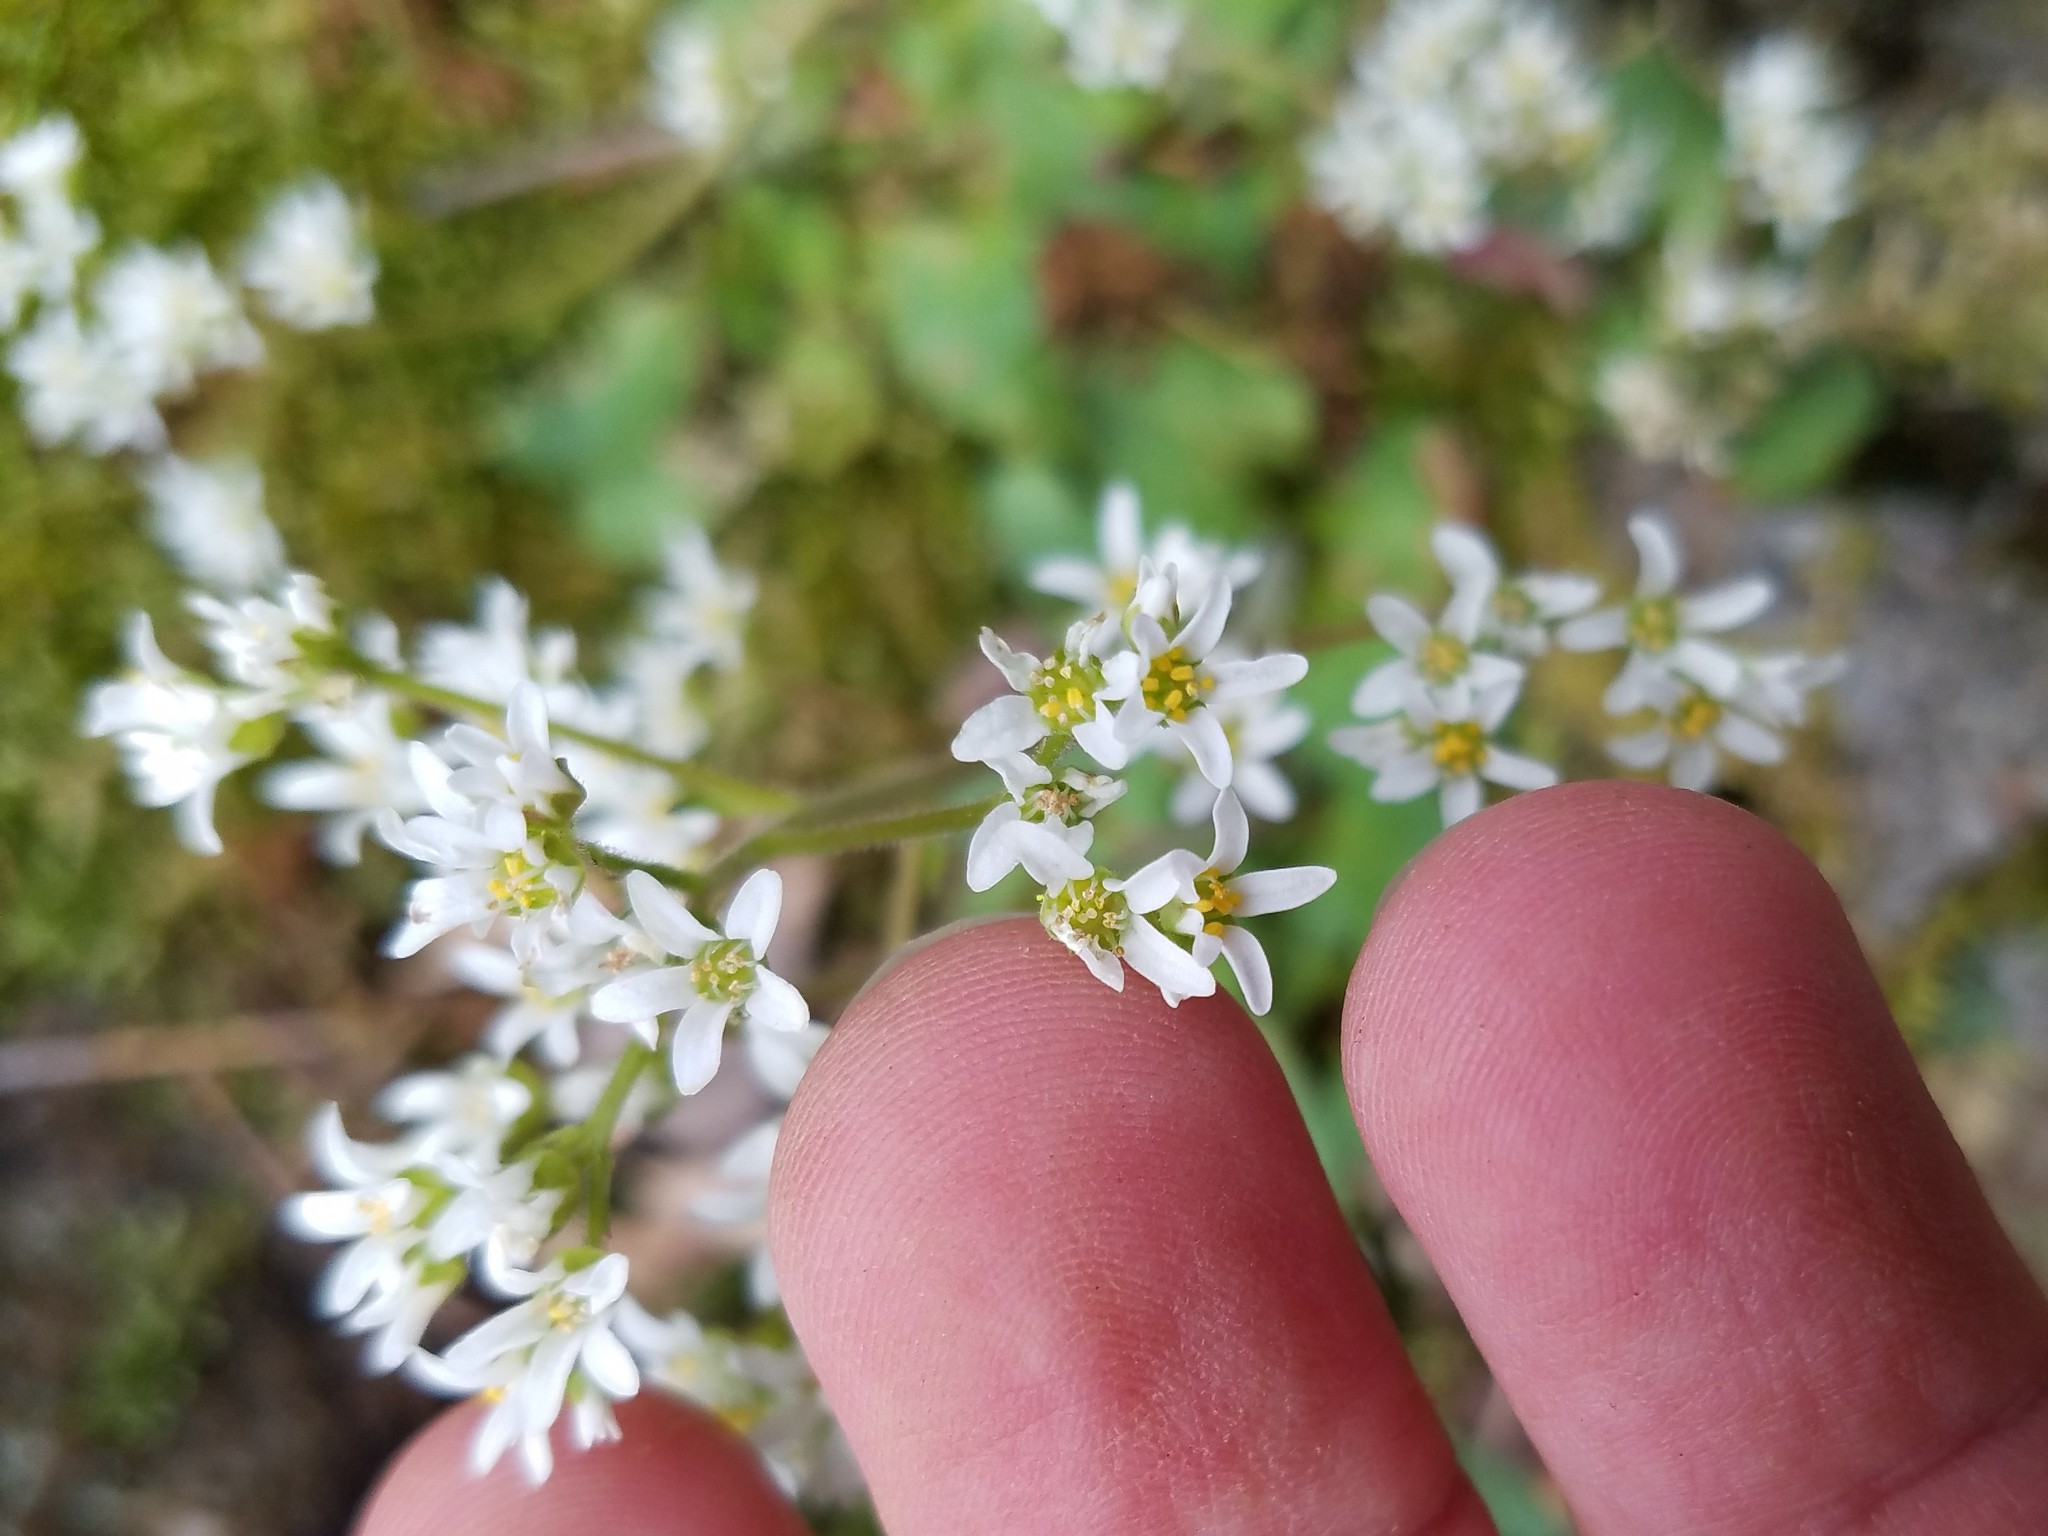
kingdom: Plantae
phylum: Tracheophyta
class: Magnoliopsida
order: Saxifragales
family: Saxifragaceae
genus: Micranthes
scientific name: Micranthes virginiensis
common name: Early saxifrage
